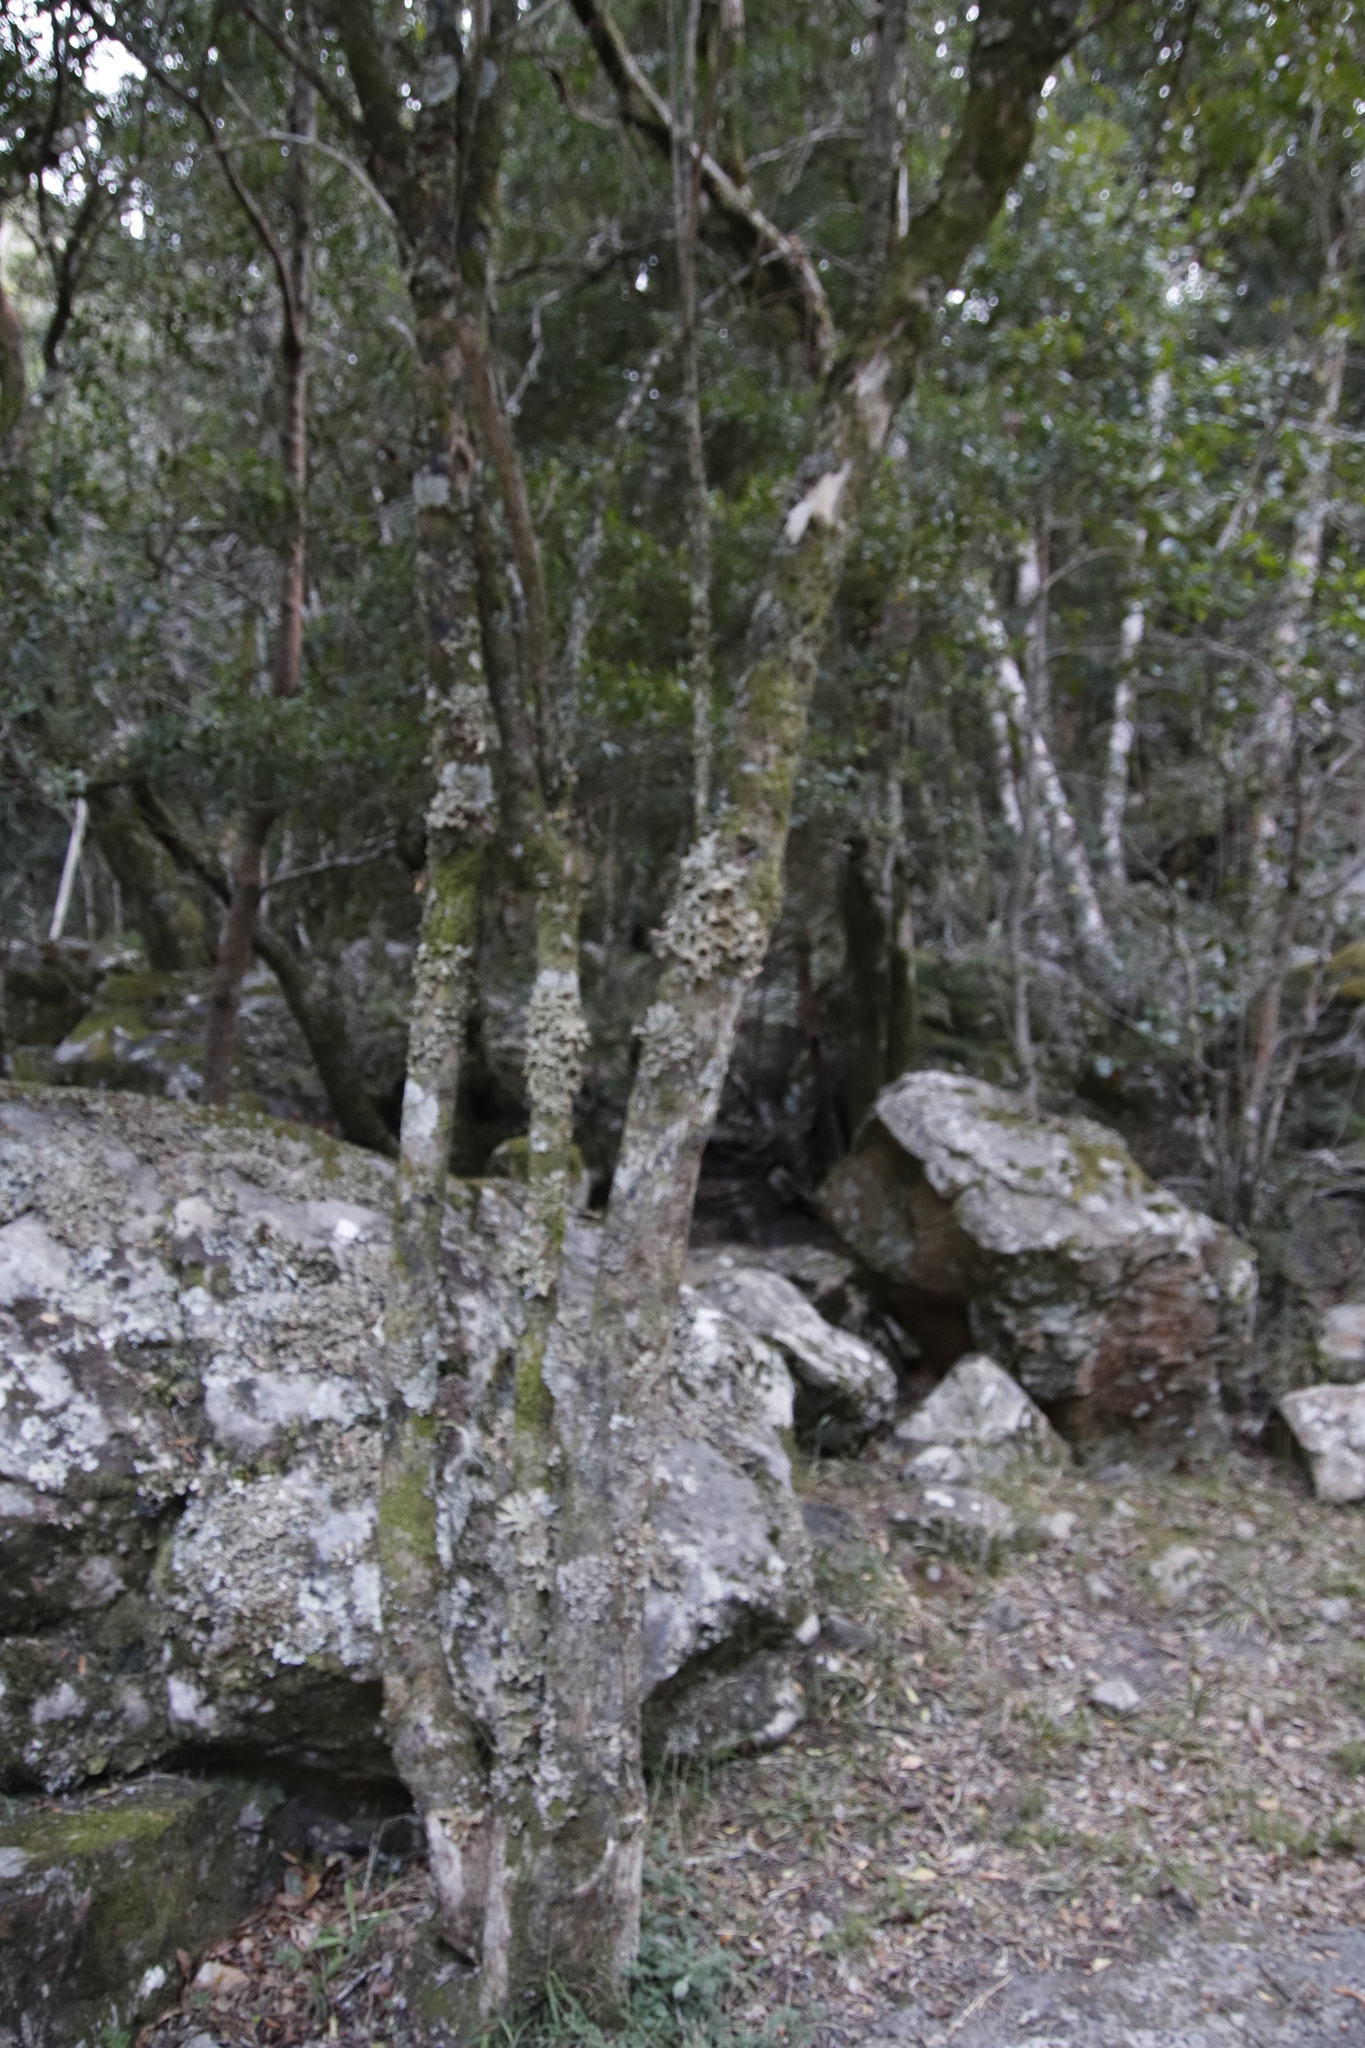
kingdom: Fungi
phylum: Ascomycota
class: Lecanoromycetes
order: Peltigerales
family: Lobariaceae
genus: Lobaria
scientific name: Lobaria pulmonaria
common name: Lungwort
